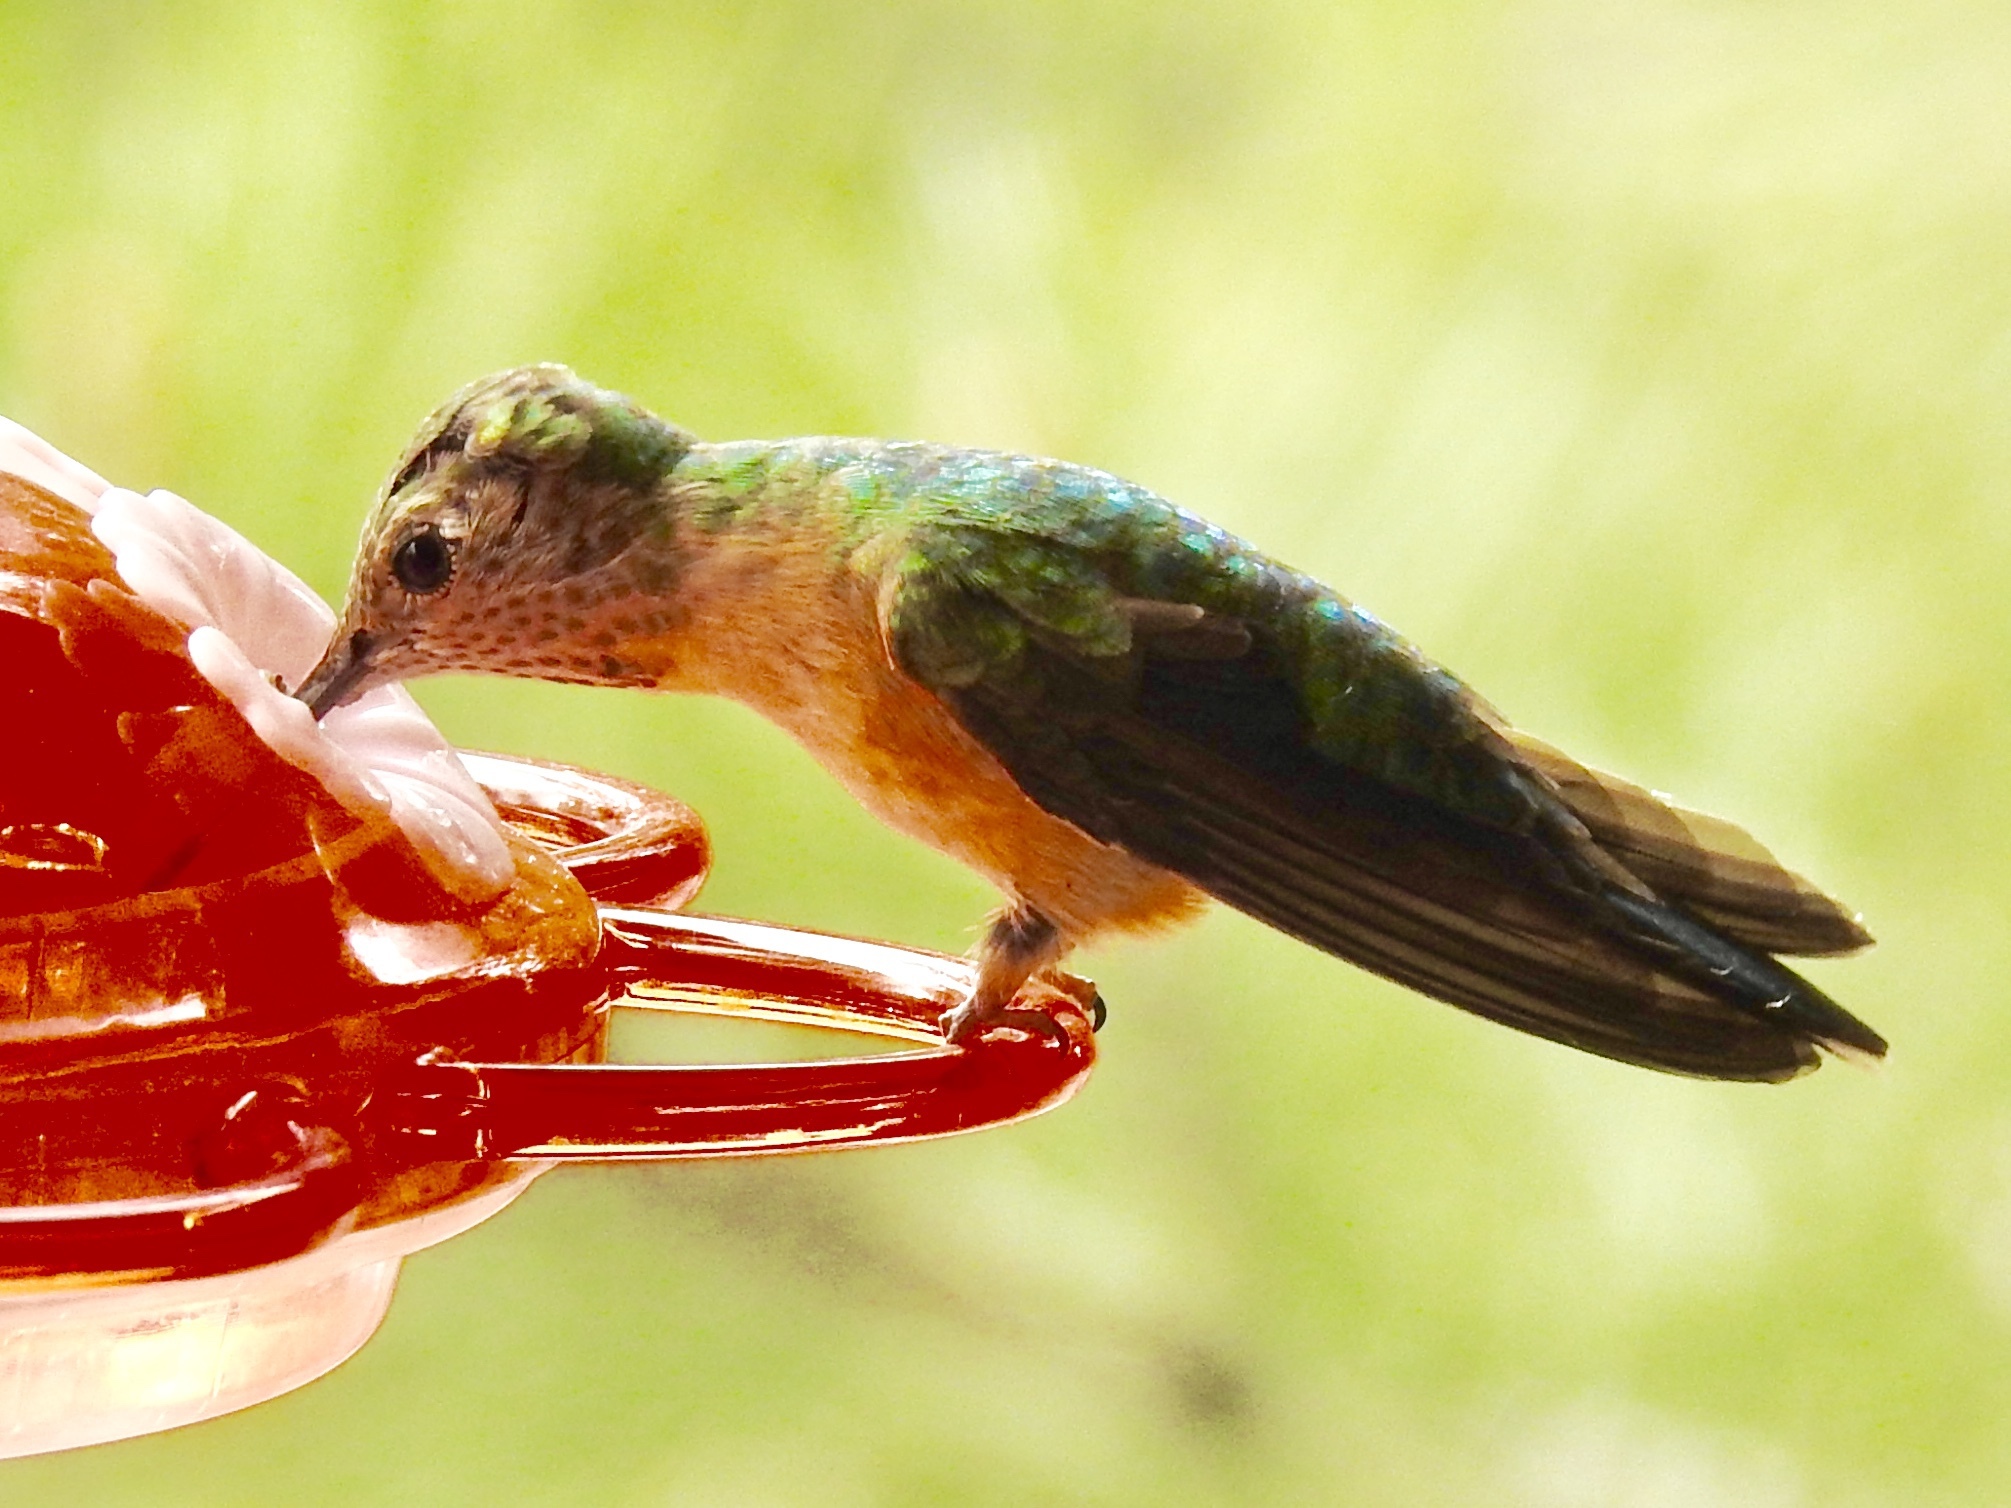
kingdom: Animalia
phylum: Chordata
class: Aves
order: Apodiformes
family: Trochilidae
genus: Selasphorus
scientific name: Selasphorus platycercus
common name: Broad-tailed hummingbird
